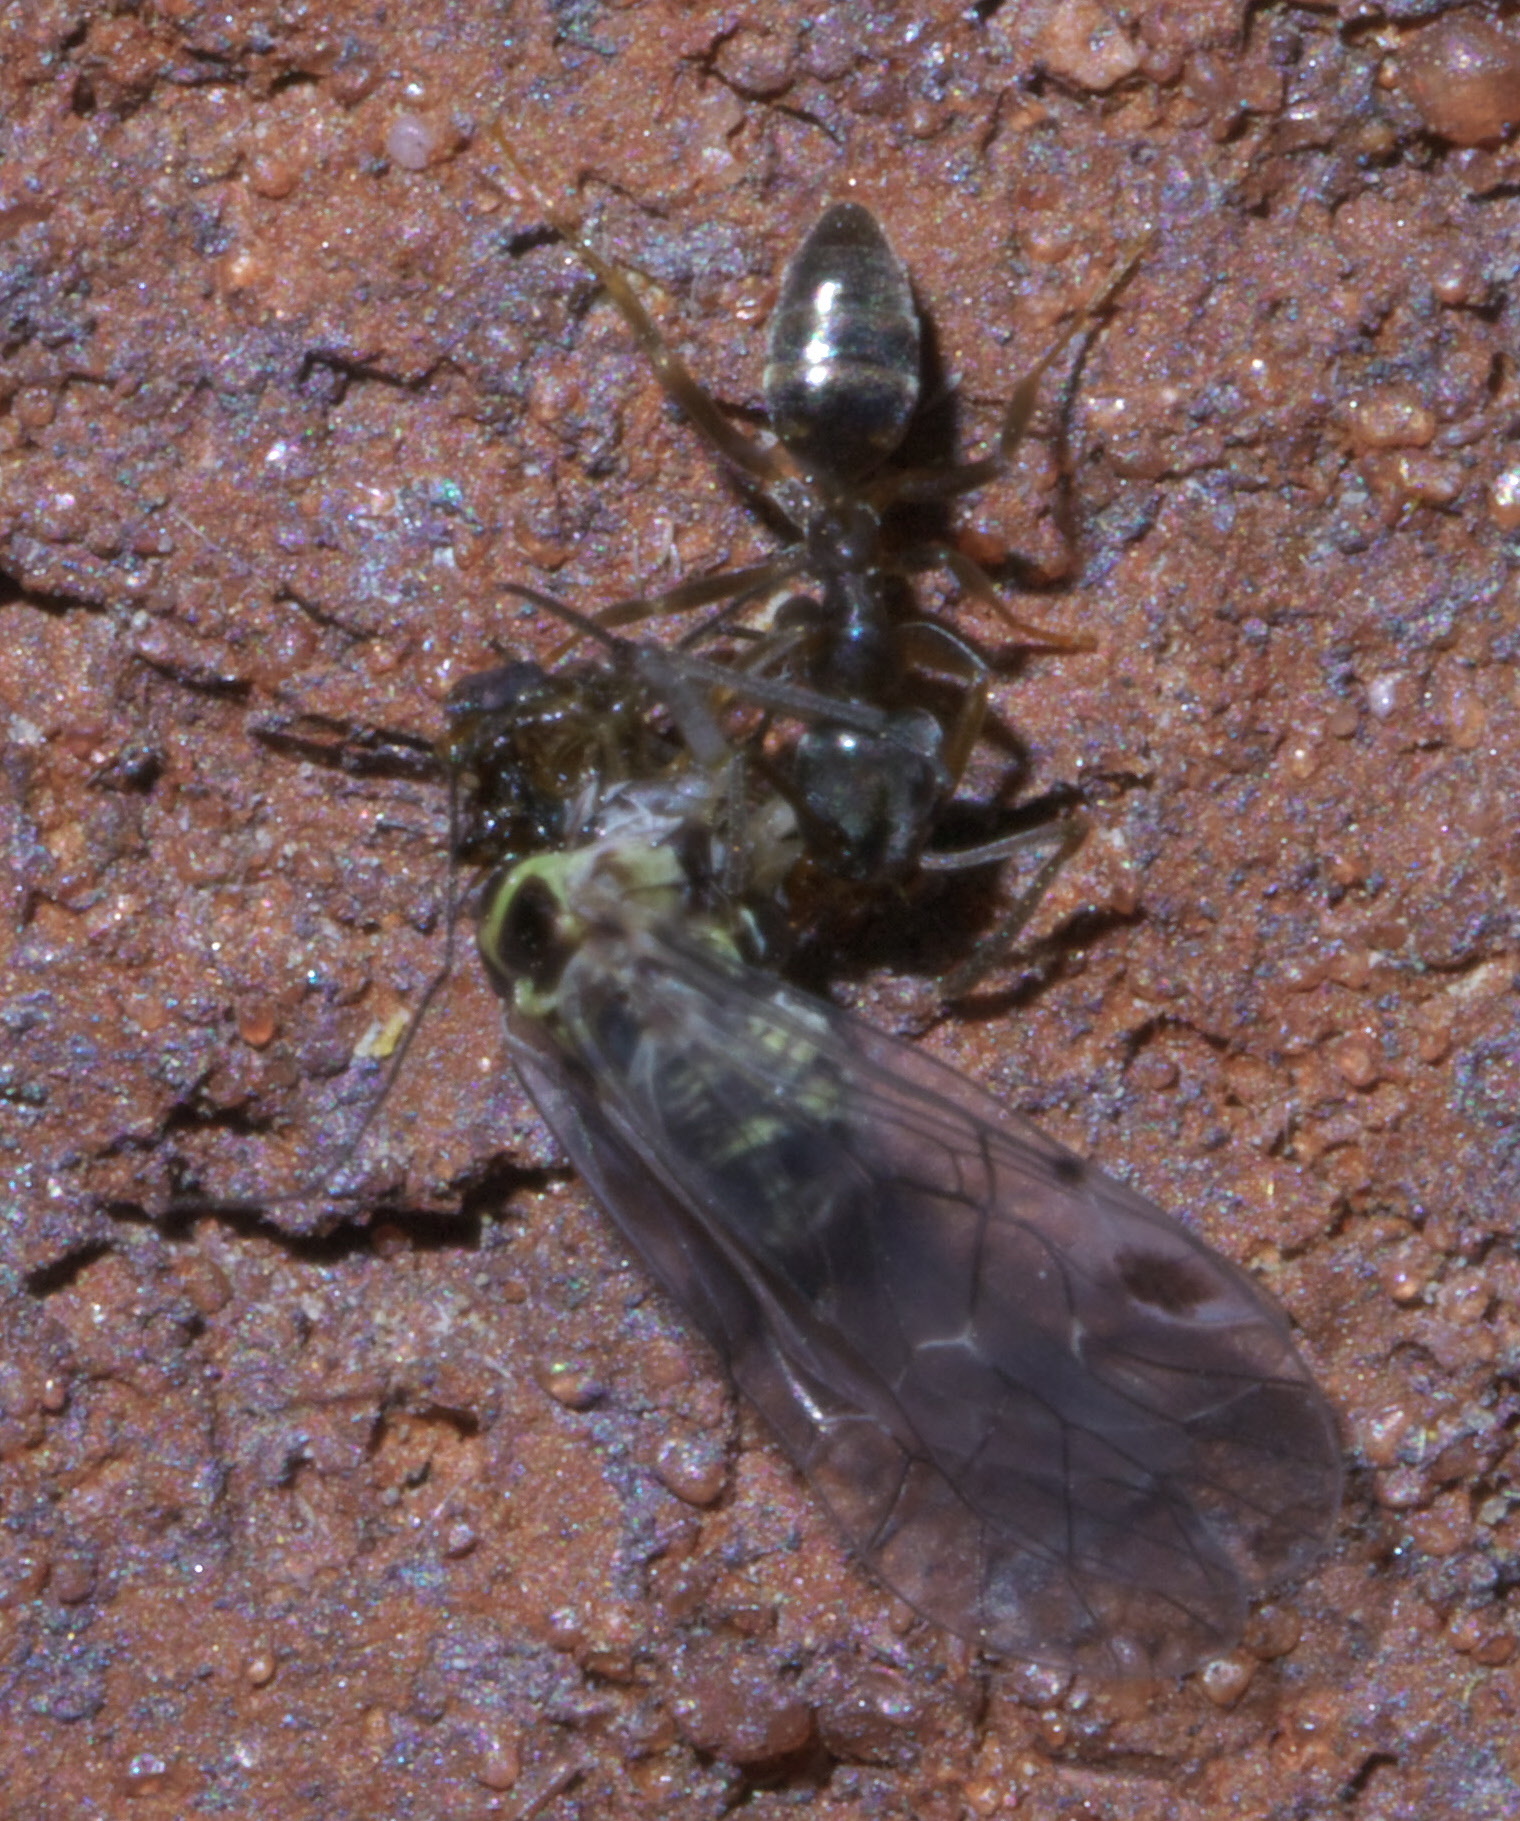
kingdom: Animalia
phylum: Arthropoda
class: Insecta
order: Hymenoptera
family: Formicidae
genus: Tapinoma
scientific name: Tapinoma sessile
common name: Odorous house ant
